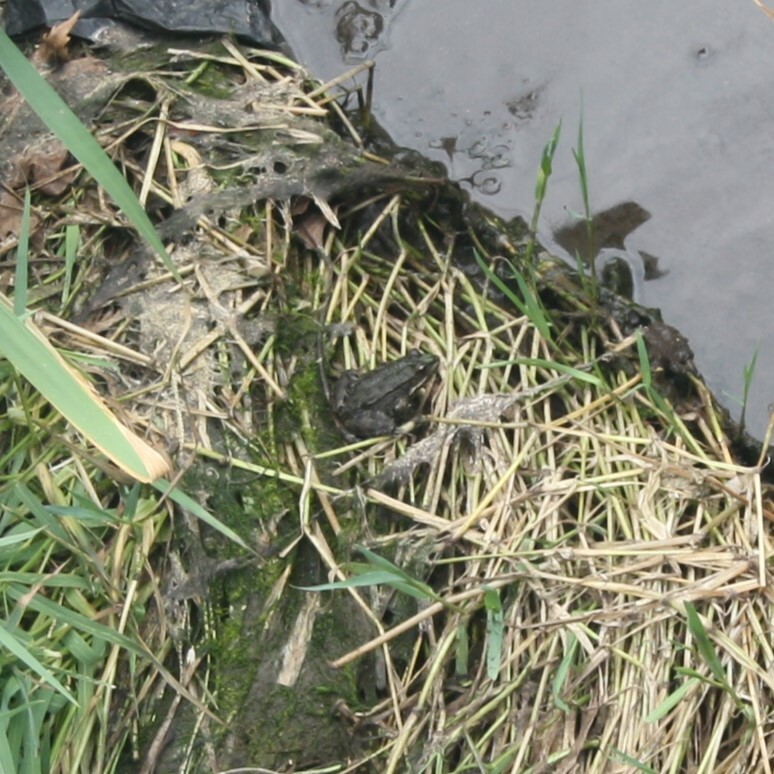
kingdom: Animalia
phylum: Chordata
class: Amphibia
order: Anura
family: Ranidae
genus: Pelophylax
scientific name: Pelophylax
